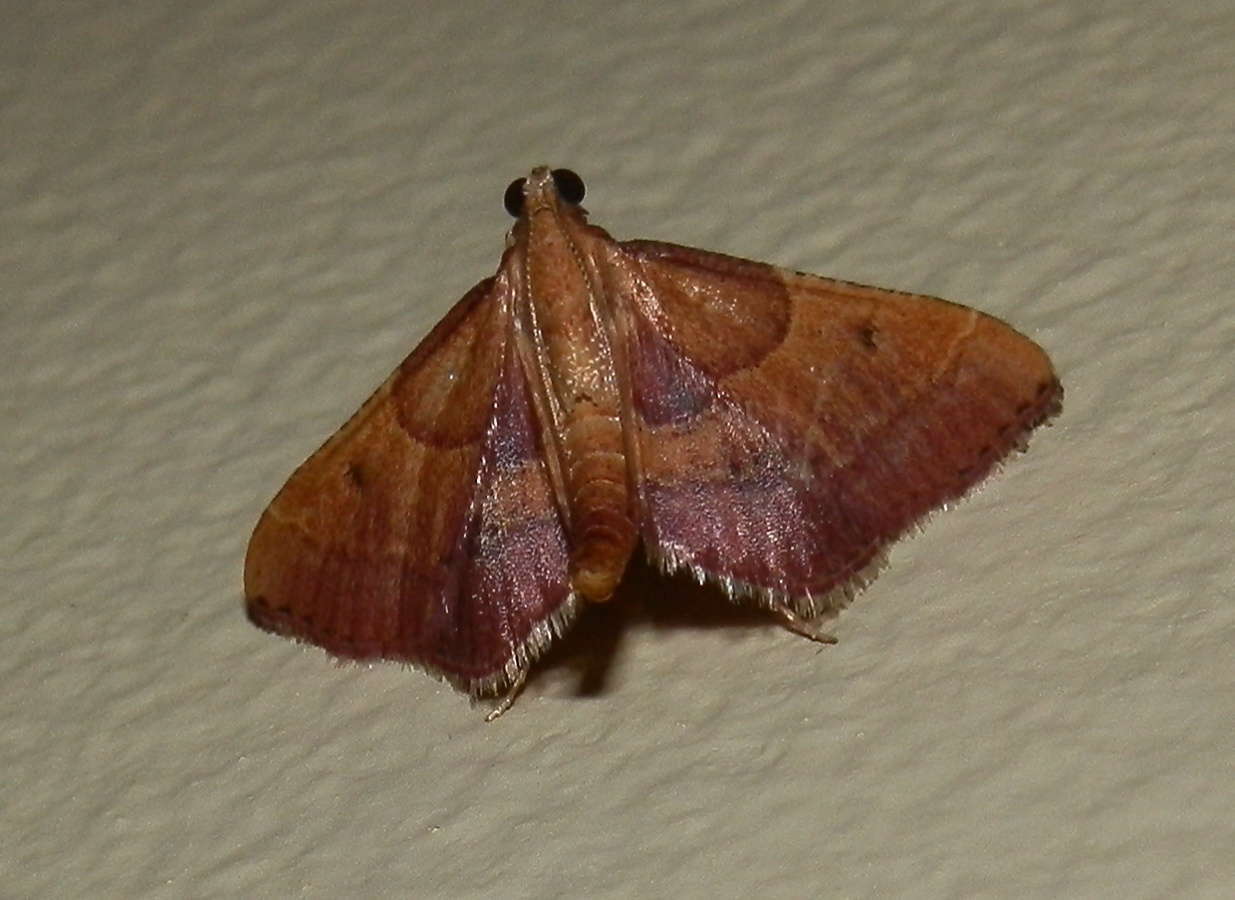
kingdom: Animalia
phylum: Arthropoda
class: Insecta
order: Lepidoptera
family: Pyralidae
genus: Endosimilis
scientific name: Endosimilis stilbealis
